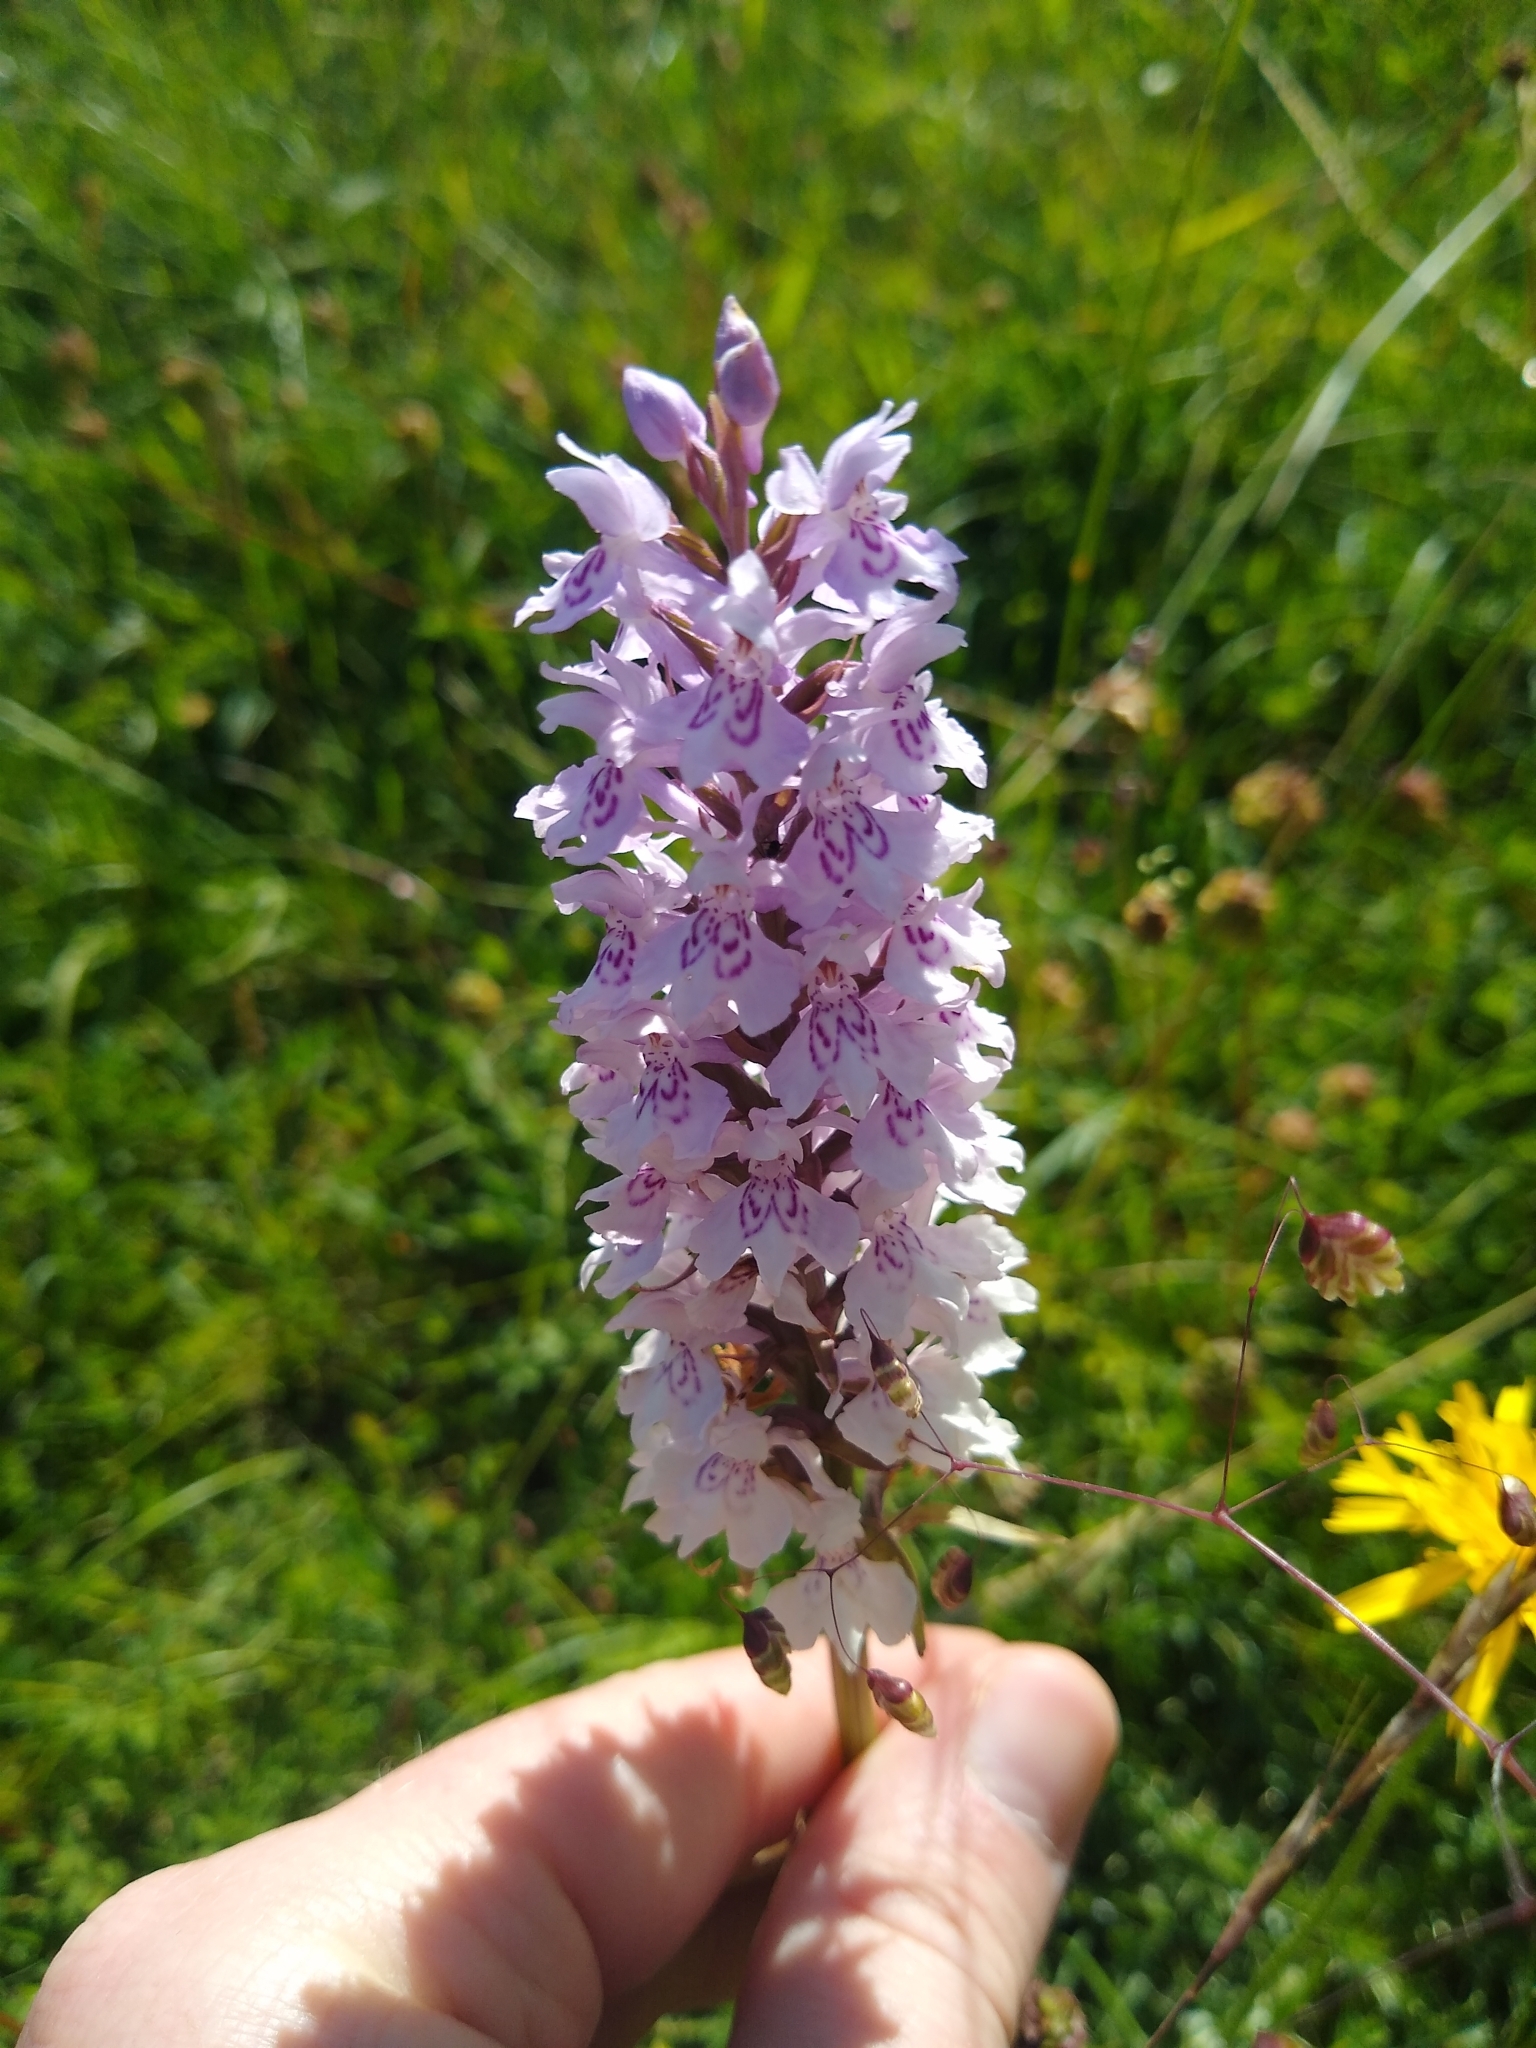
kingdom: Plantae
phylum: Tracheophyta
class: Liliopsida
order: Asparagales
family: Orchidaceae
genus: Dactylorhiza
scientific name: Dactylorhiza maculata
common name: Heath spotted-orchid
